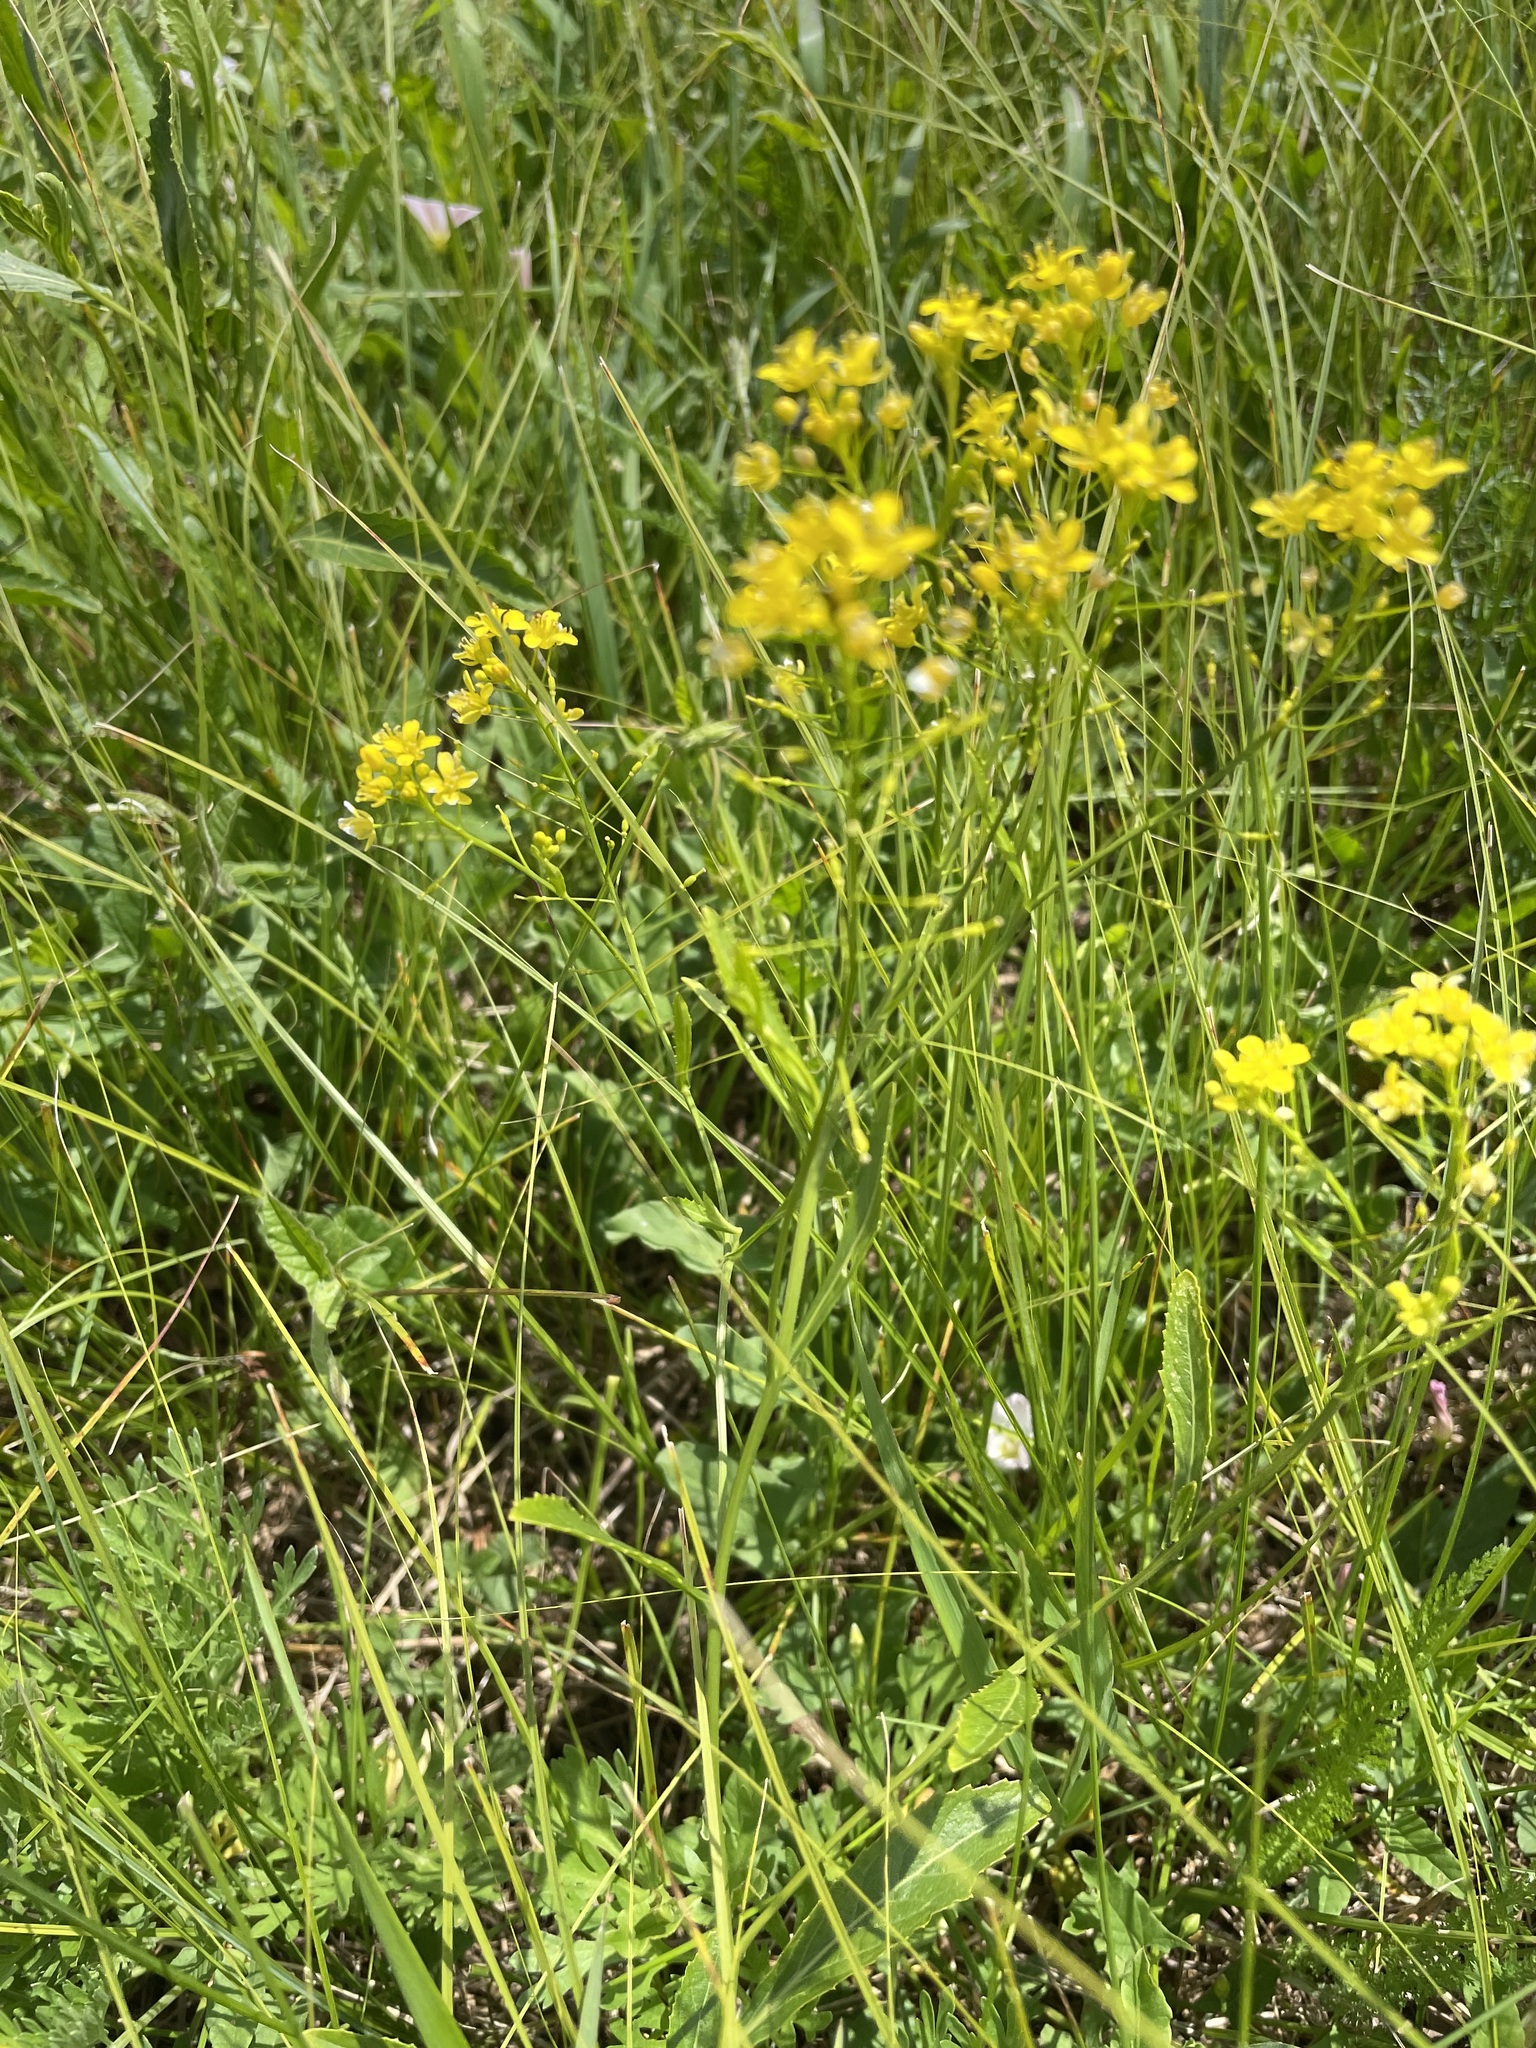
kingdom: Plantae
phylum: Tracheophyta
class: Magnoliopsida
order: Brassicales
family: Brassicaceae
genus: Rorippa
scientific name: Rorippa austriaca
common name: Austrian yellow-cress
